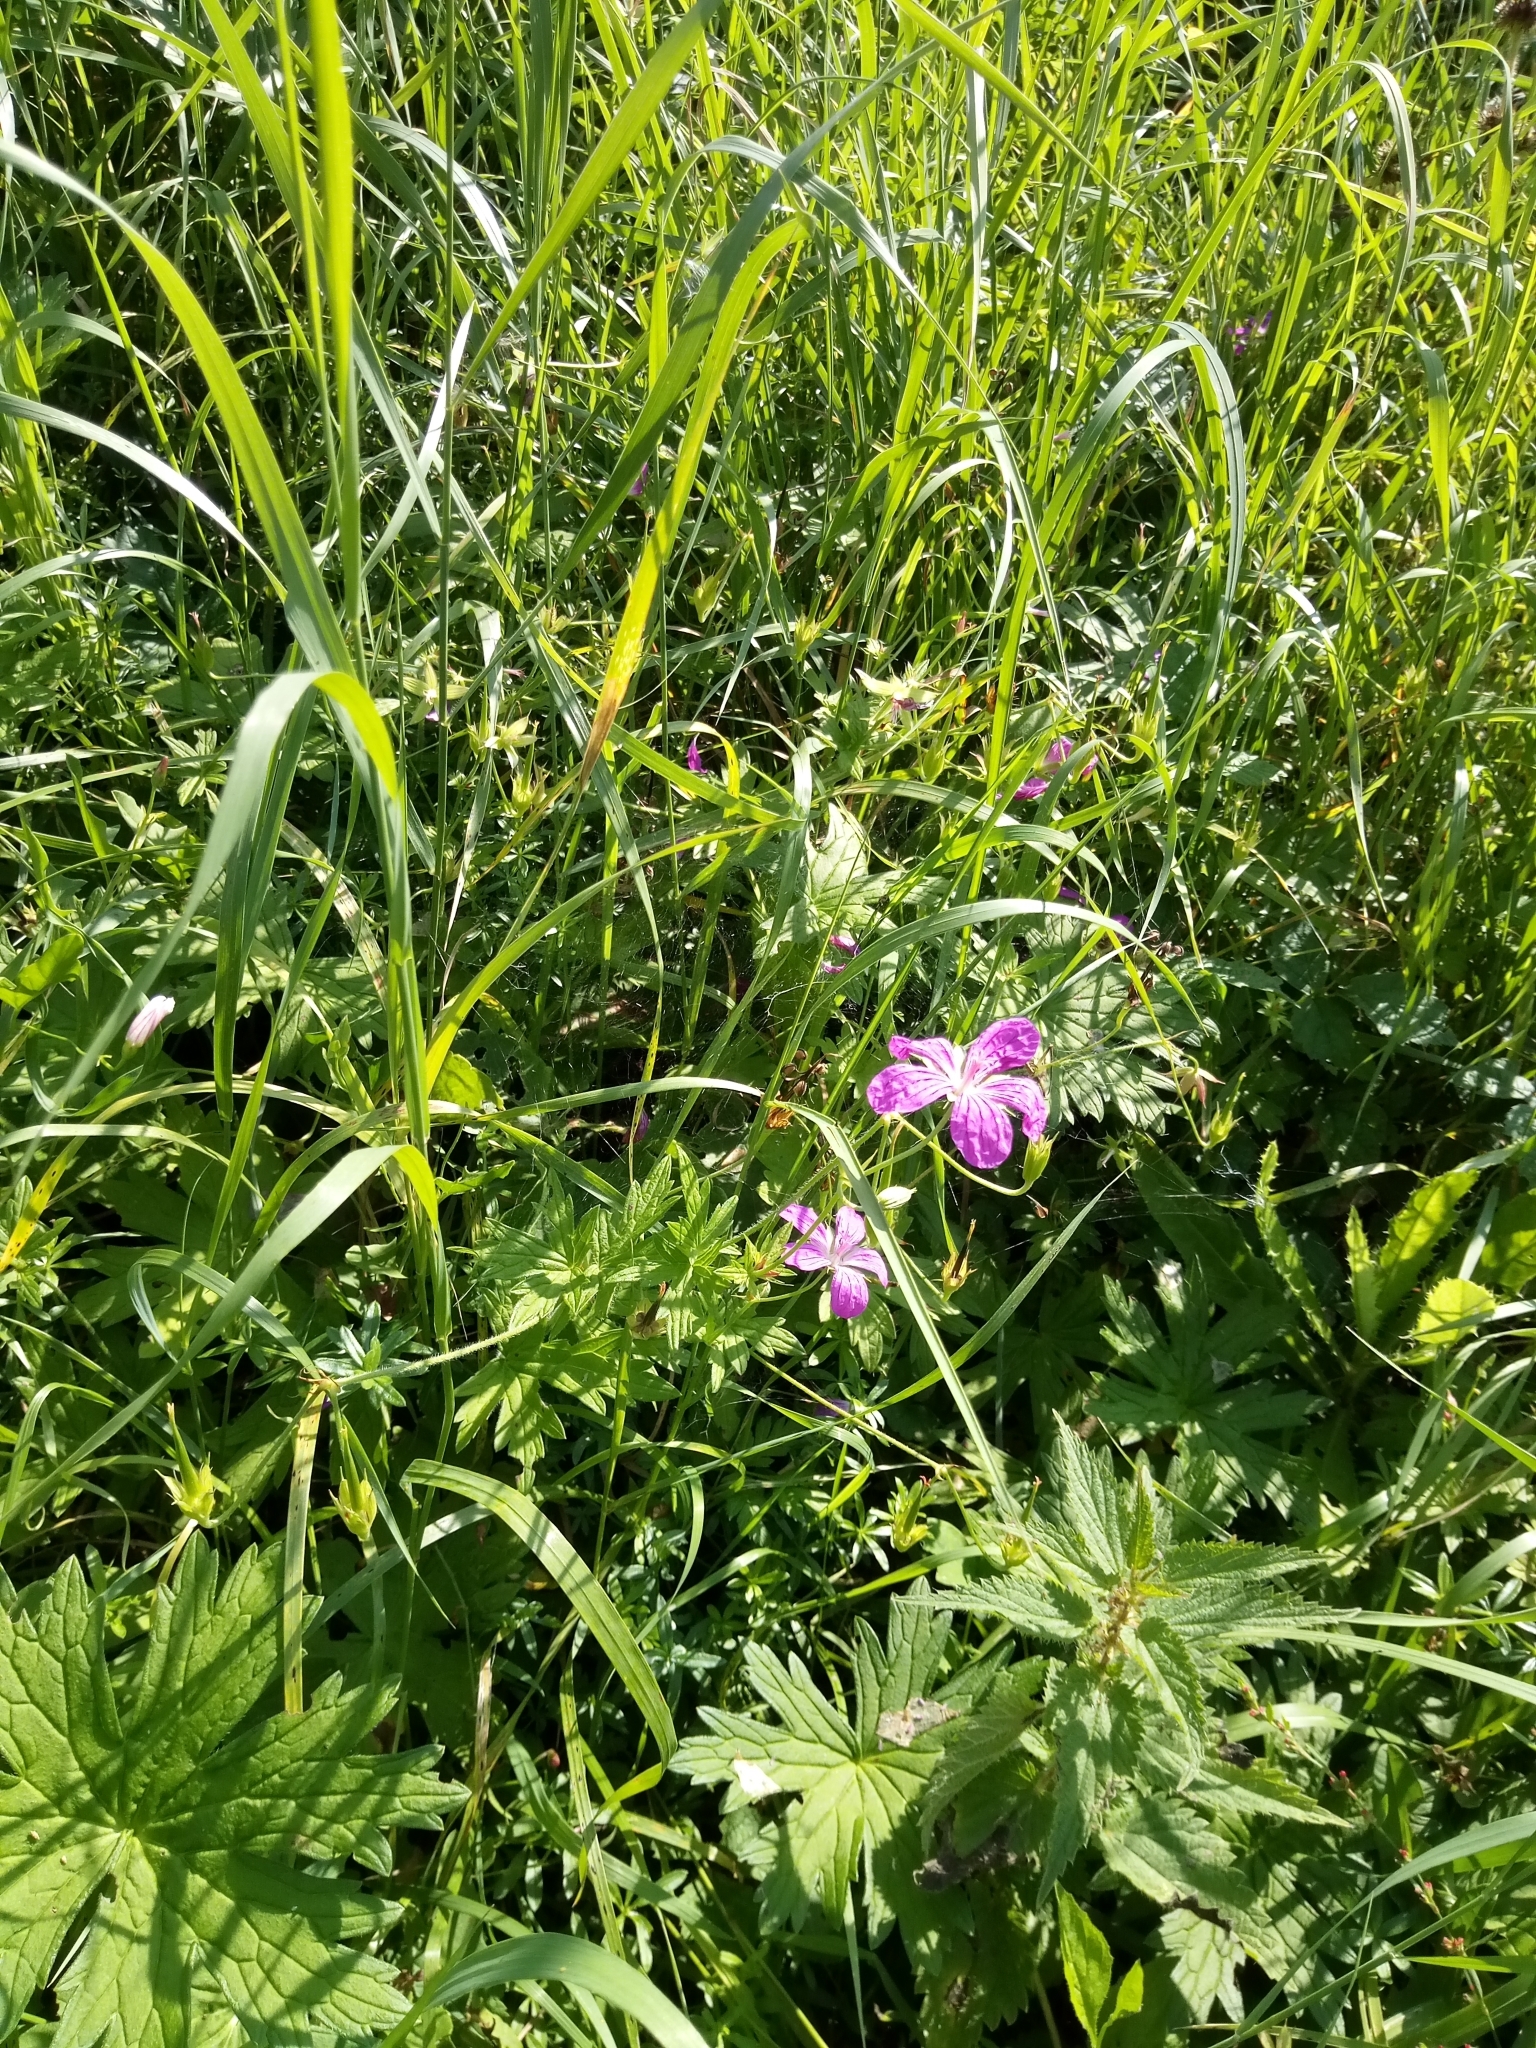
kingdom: Plantae
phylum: Tracheophyta
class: Magnoliopsida
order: Geraniales
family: Geraniaceae
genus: Geranium
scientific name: Geranium palustre
